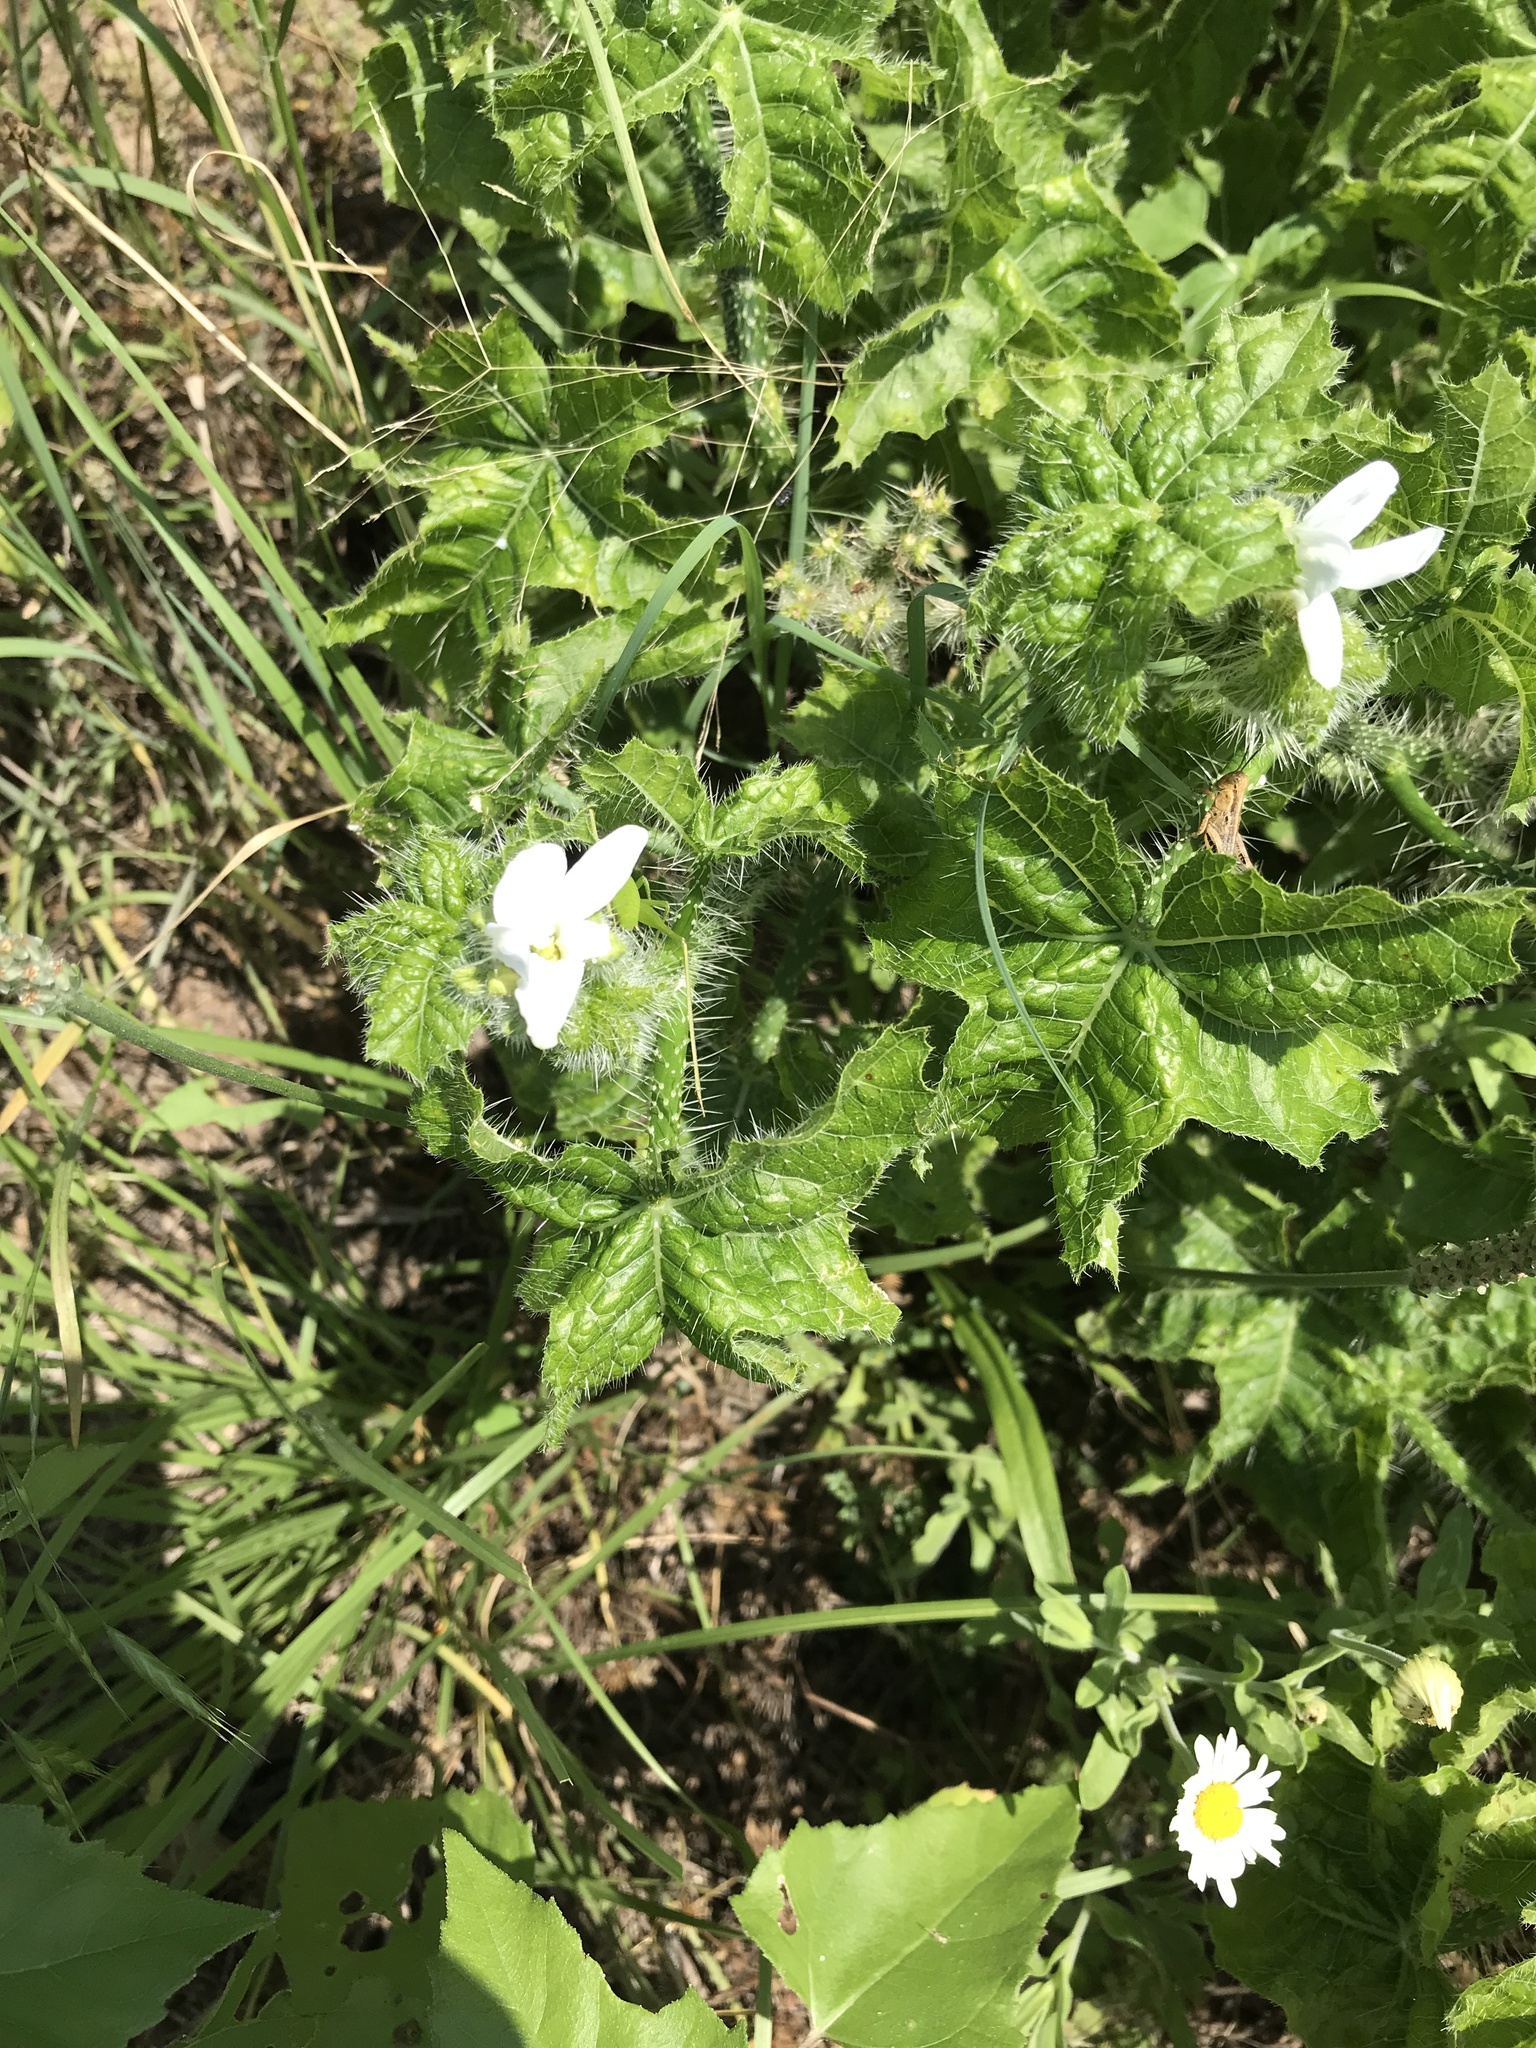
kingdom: Plantae
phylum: Tracheophyta
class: Magnoliopsida
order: Malpighiales
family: Euphorbiaceae
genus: Cnidoscolus
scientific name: Cnidoscolus texanus
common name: Texas bull-nettle
